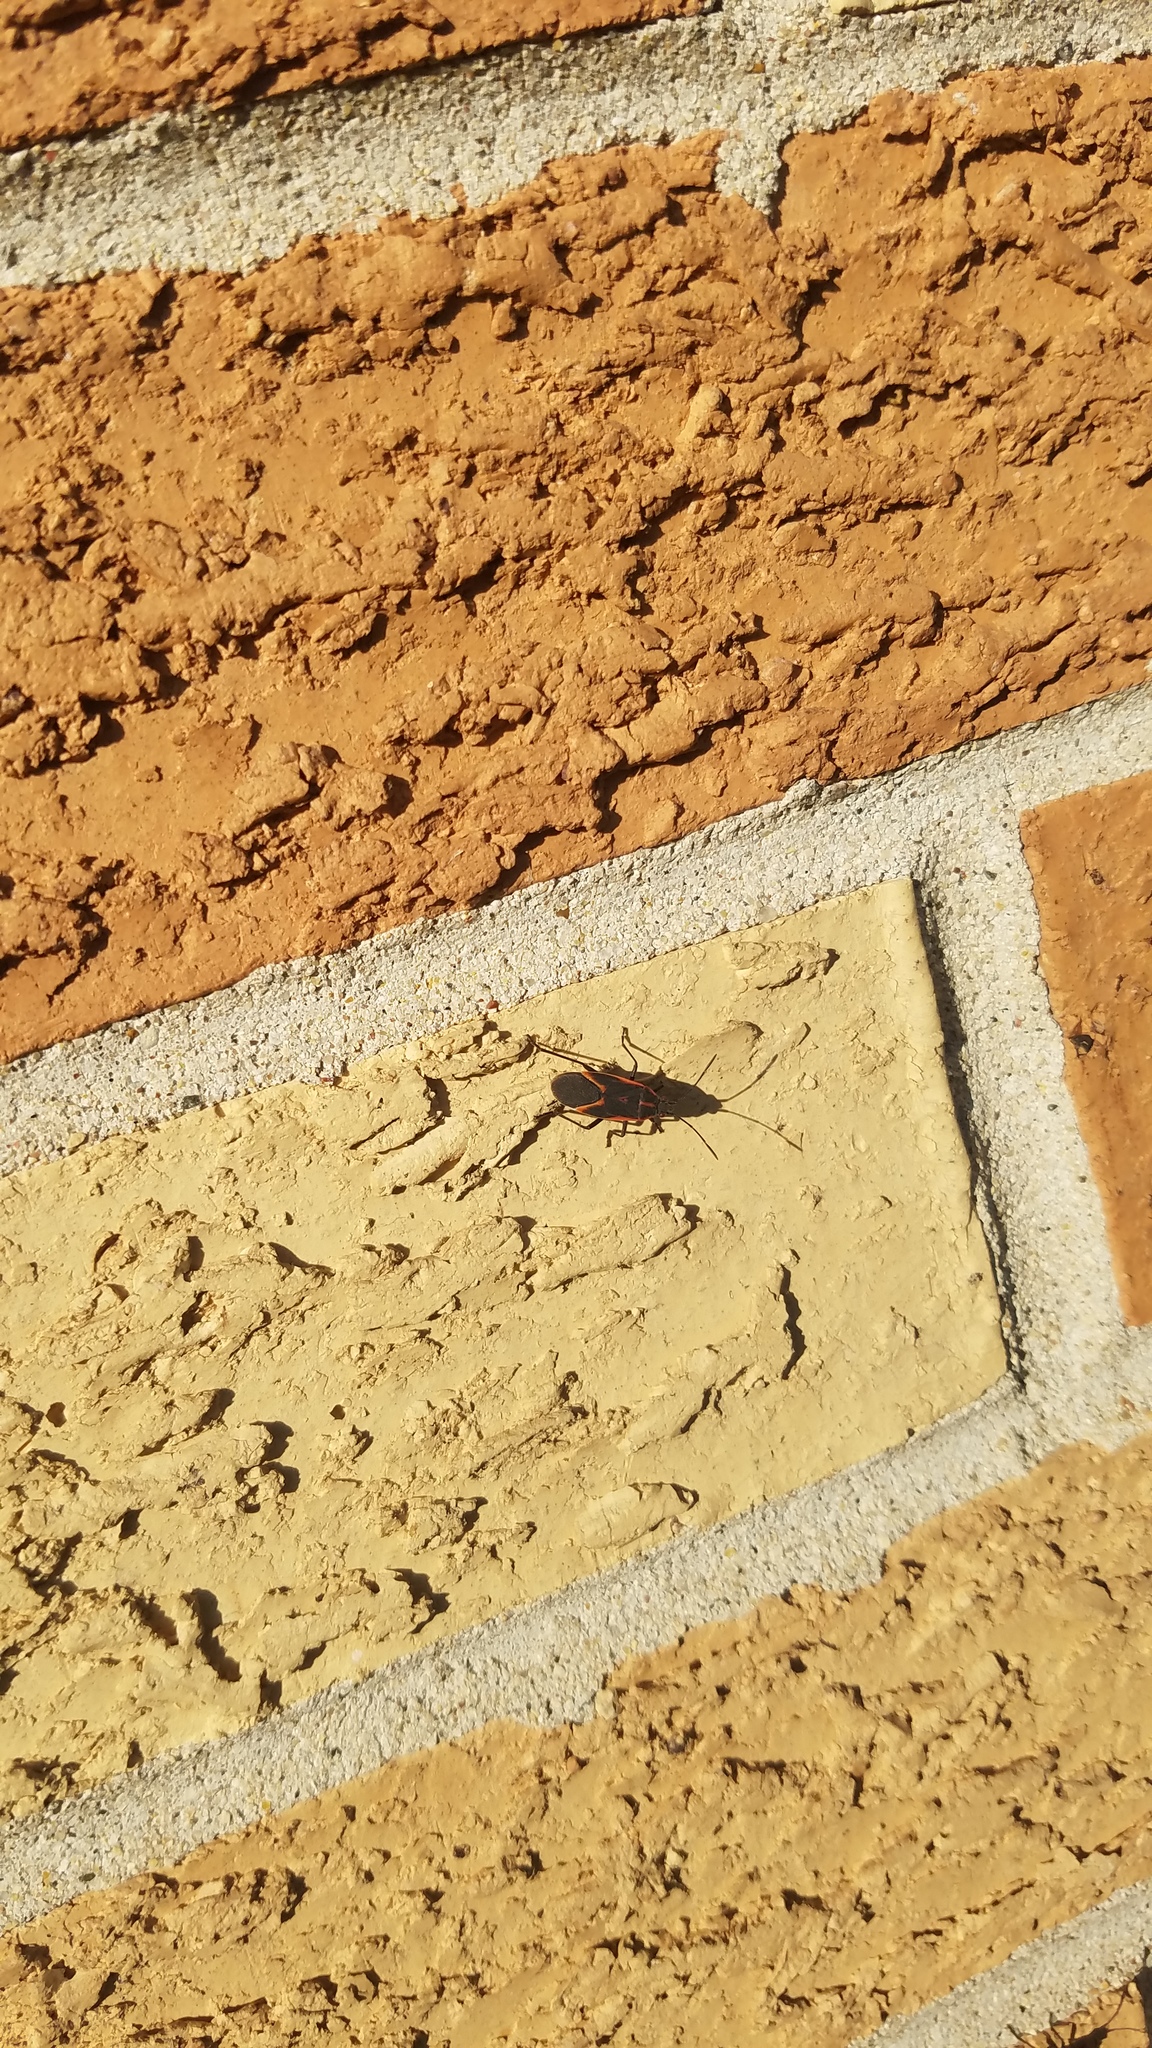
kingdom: Animalia
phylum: Arthropoda
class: Insecta
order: Hemiptera
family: Rhopalidae
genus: Boisea
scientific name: Boisea trivittata
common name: Boxelder bug
